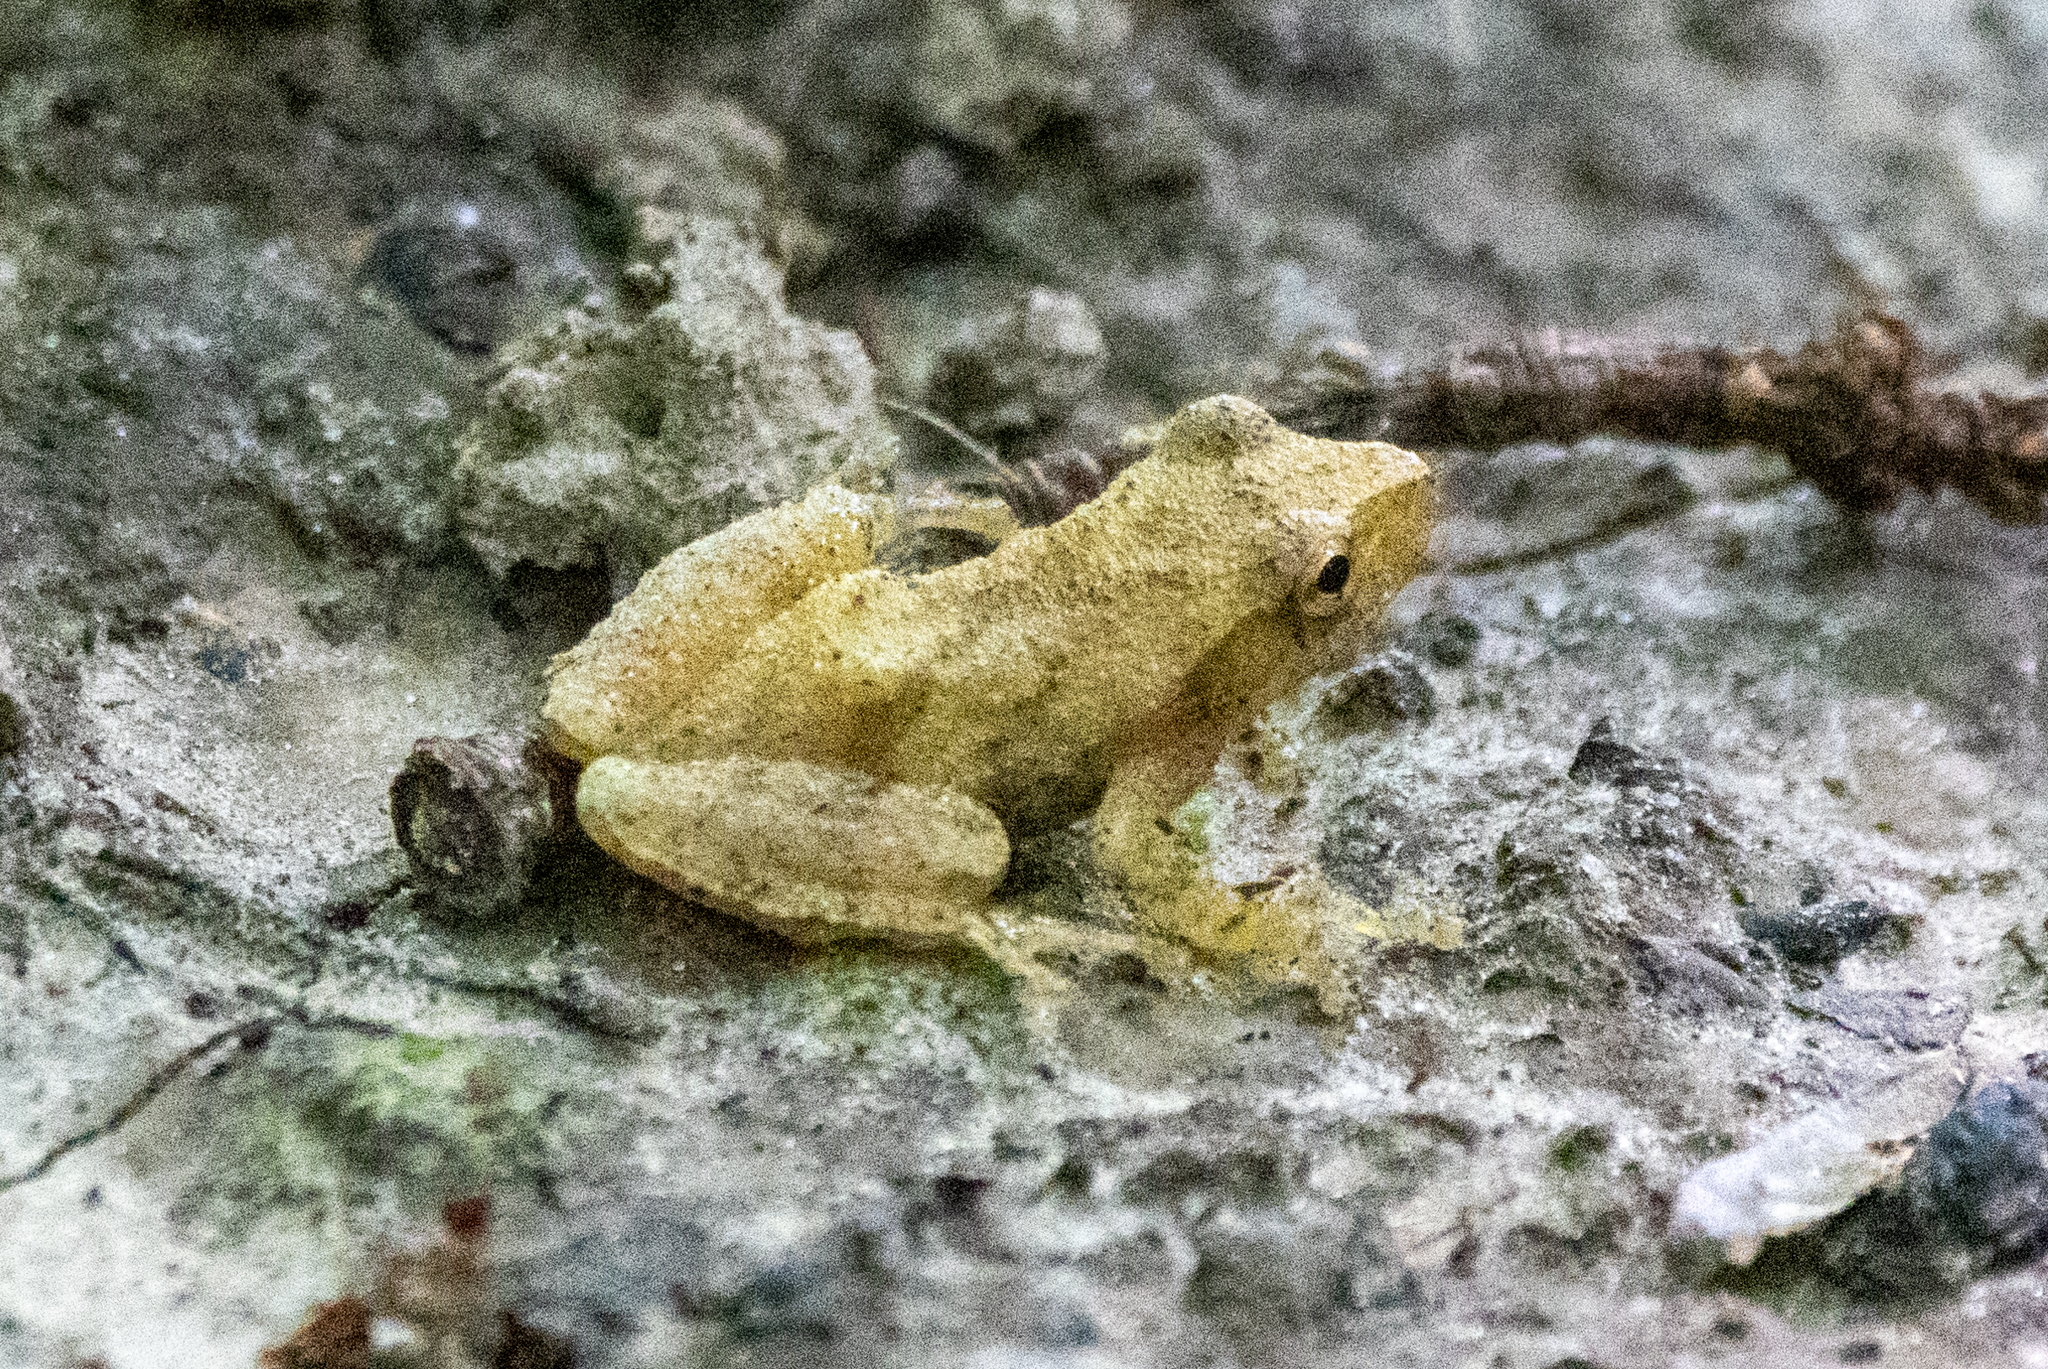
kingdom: Animalia
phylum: Chordata
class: Amphibia
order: Anura
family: Hylidae
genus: Pseudacris
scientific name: Pseudacris crucifer
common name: Spring peeper
